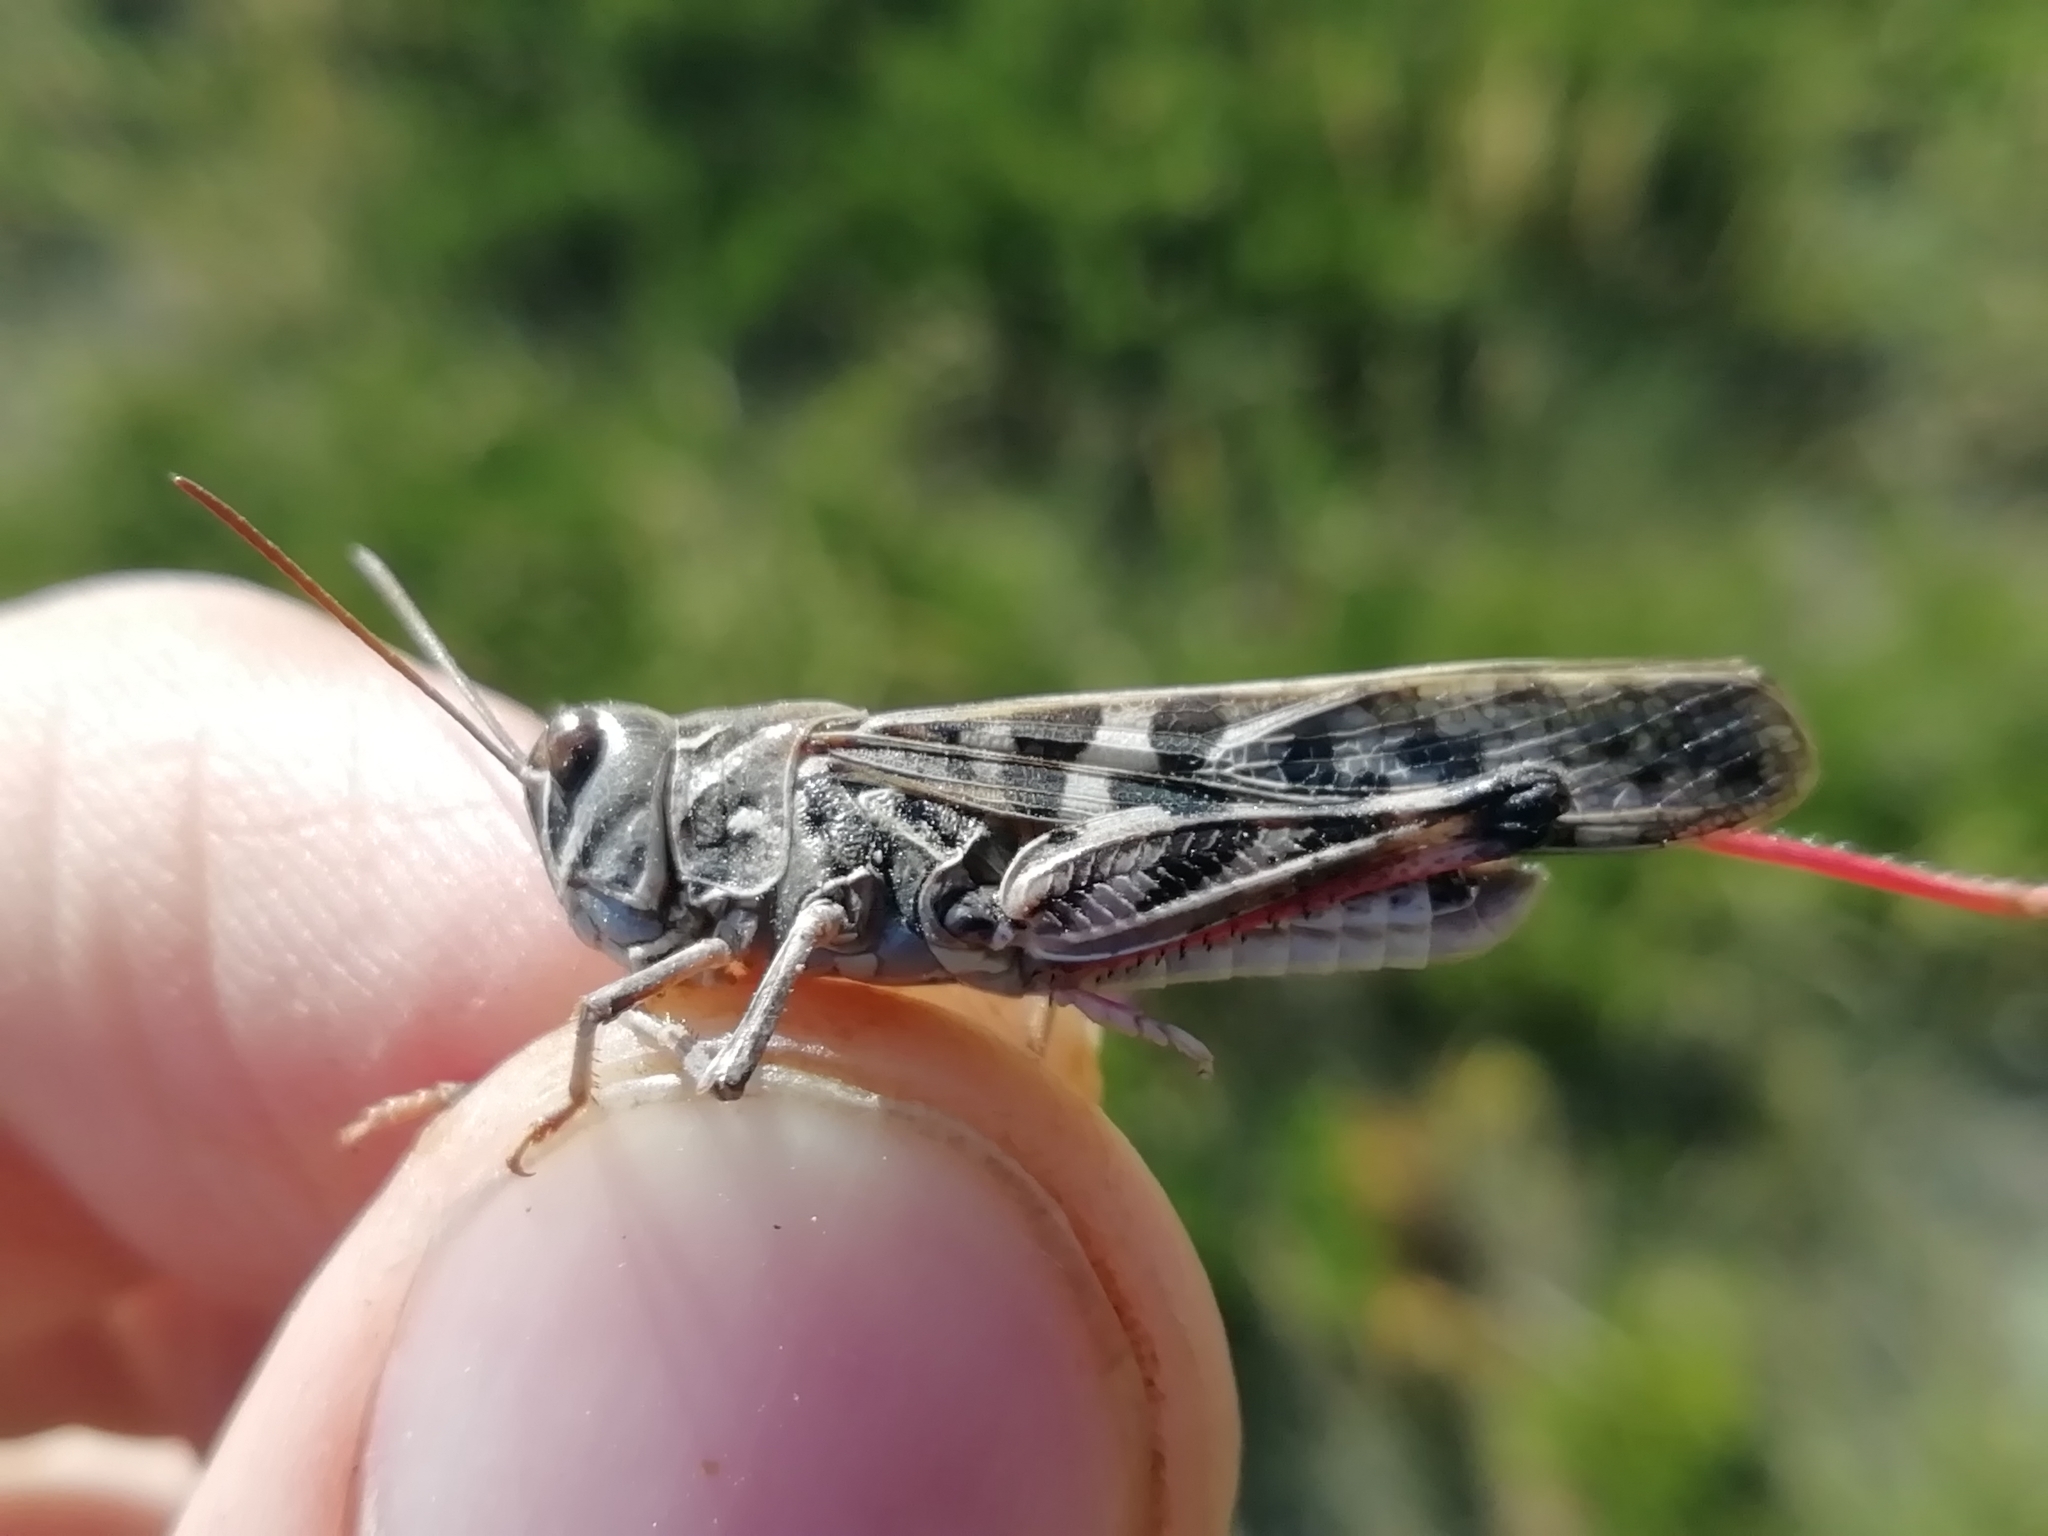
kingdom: Animalia
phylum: Arthropoda
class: Insecta
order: Orthoptera
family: Acrididae
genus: Oedaleus
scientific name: Oedaleus decorus
